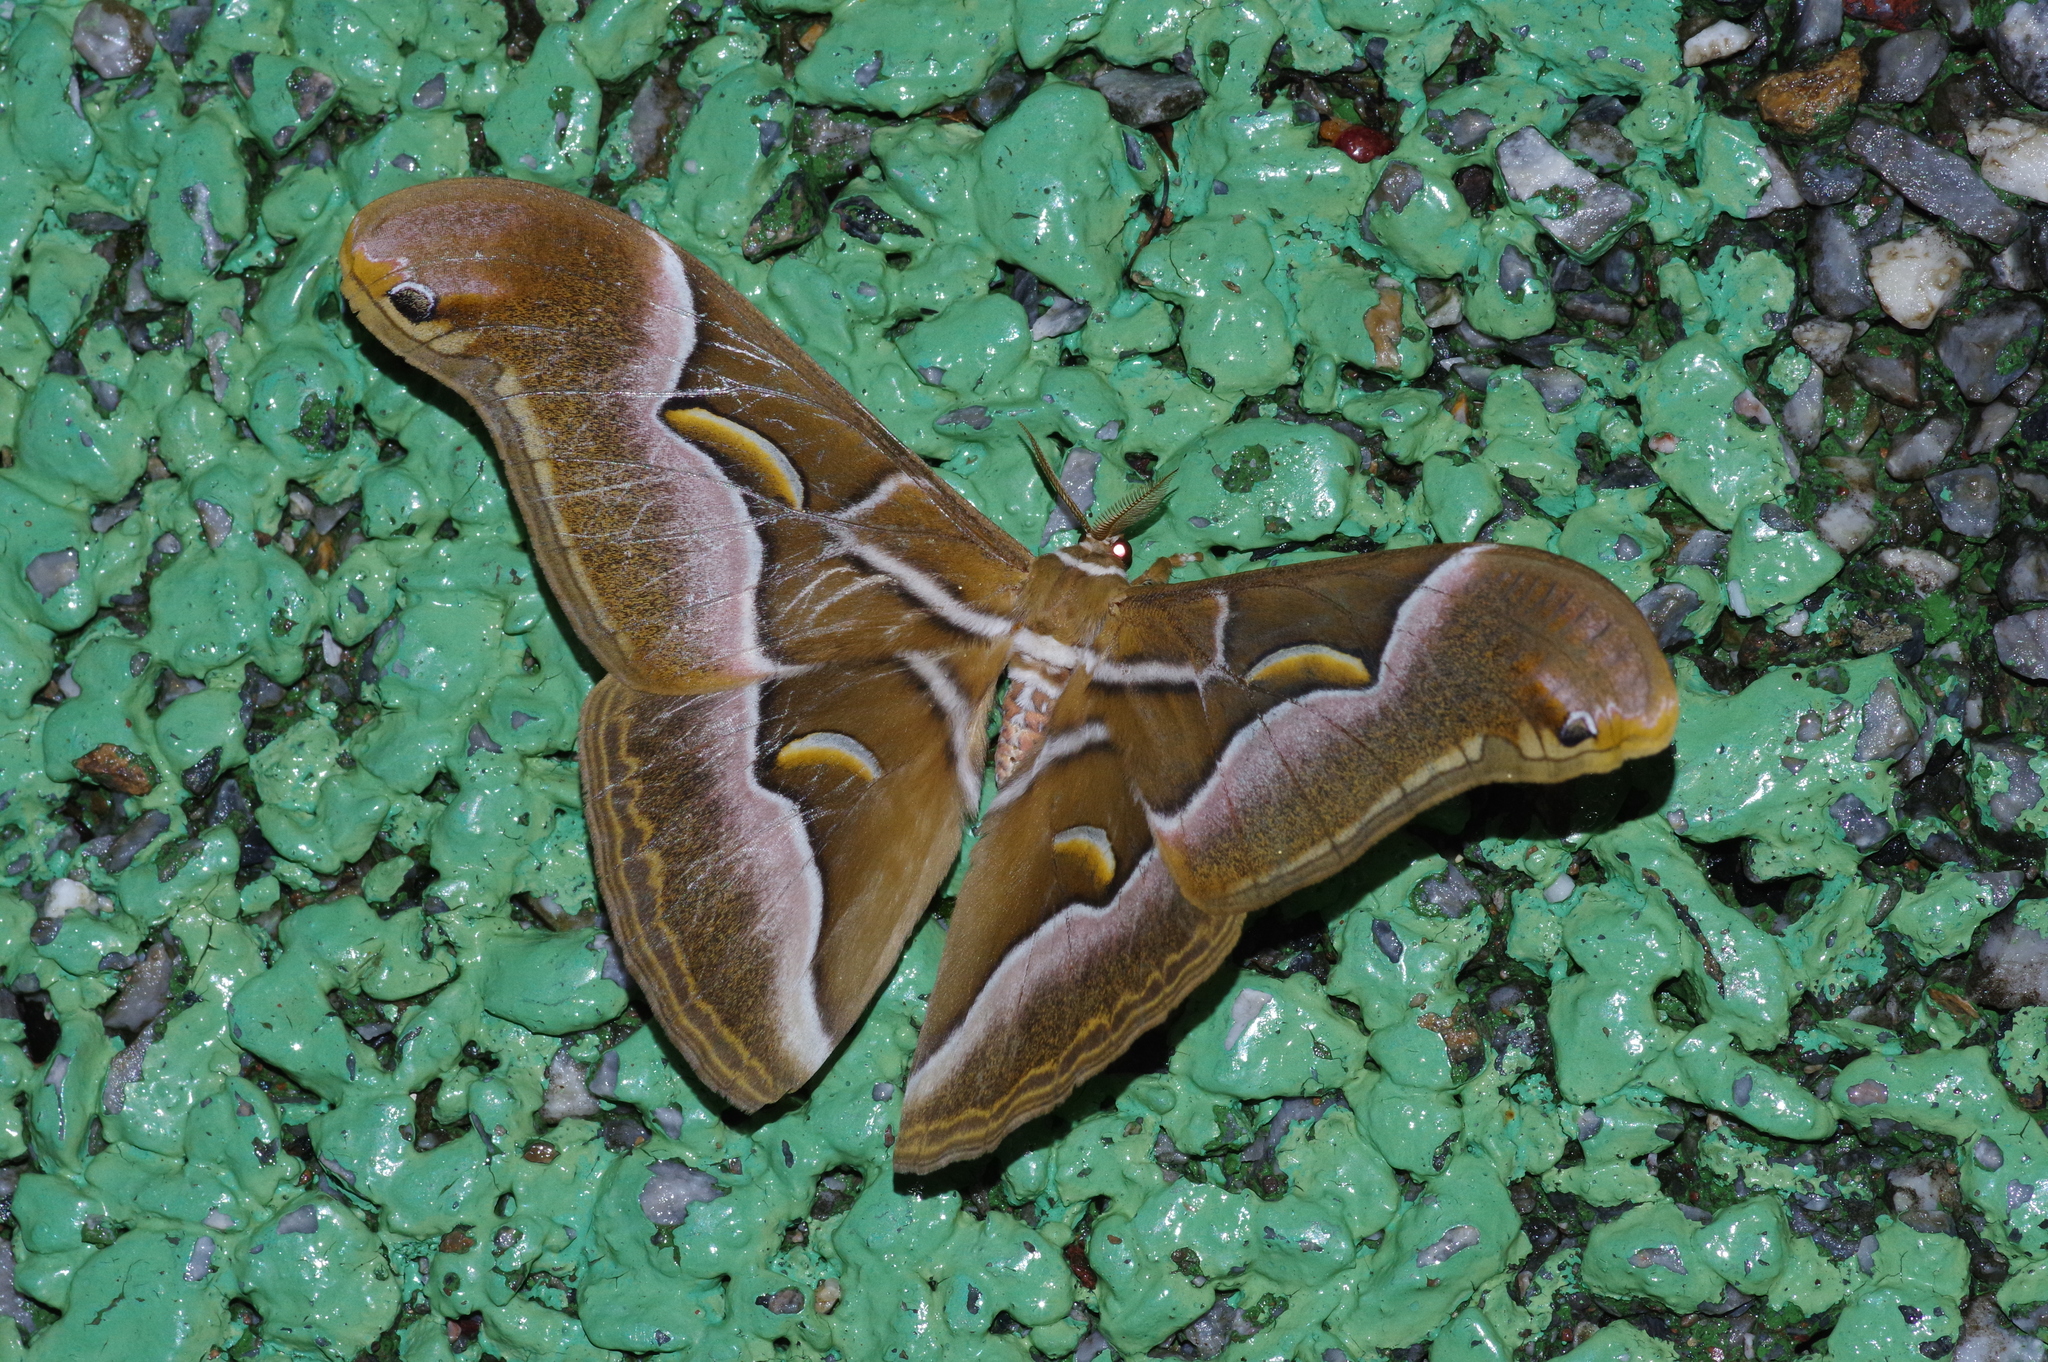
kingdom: Animalia
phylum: Arthropoda
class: Insecta
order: Lepidoptera
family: Saturniidae
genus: Samia
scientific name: Samia cynthia
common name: Ailanthus silkmoth
